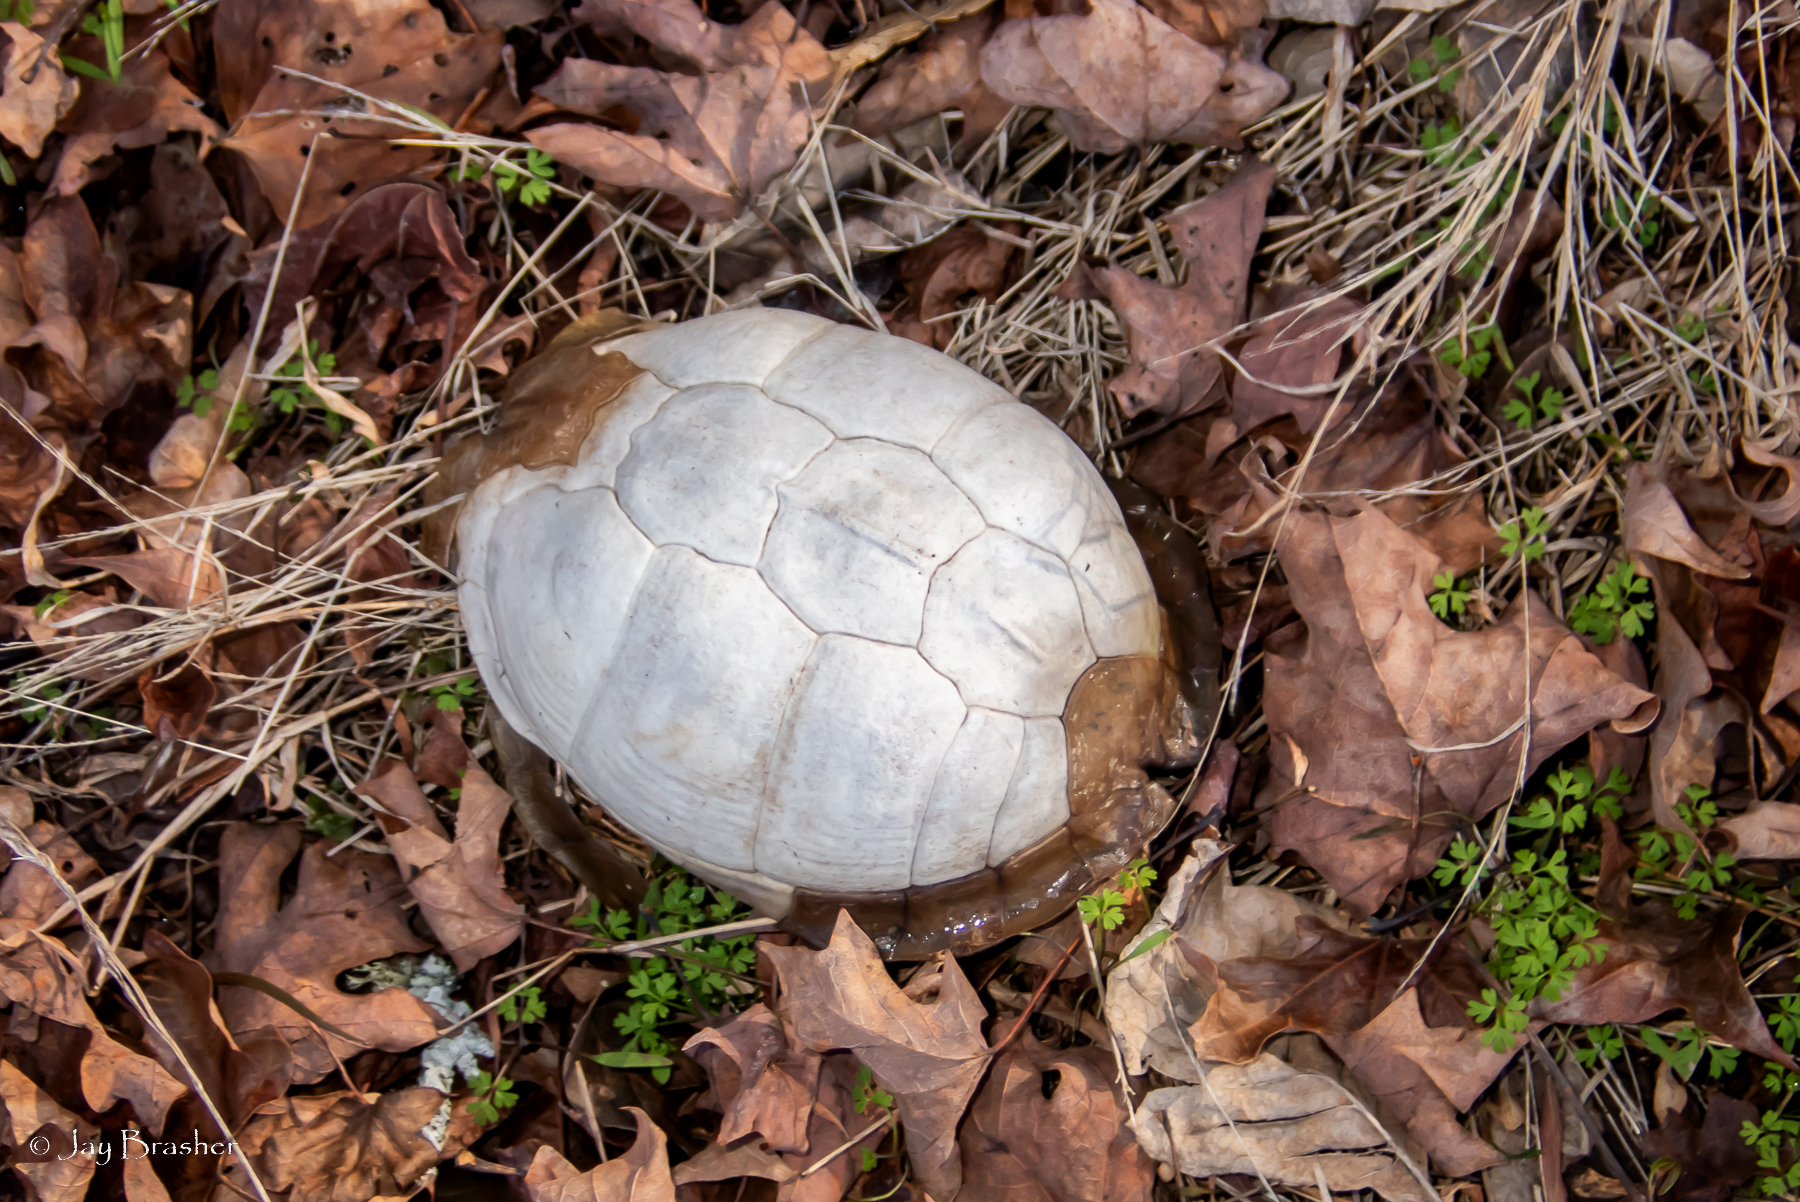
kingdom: Animalia
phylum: Chordata
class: Testudines
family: Emydidae
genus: Terrapene
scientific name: Terrapene carolina
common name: Common box turtle
